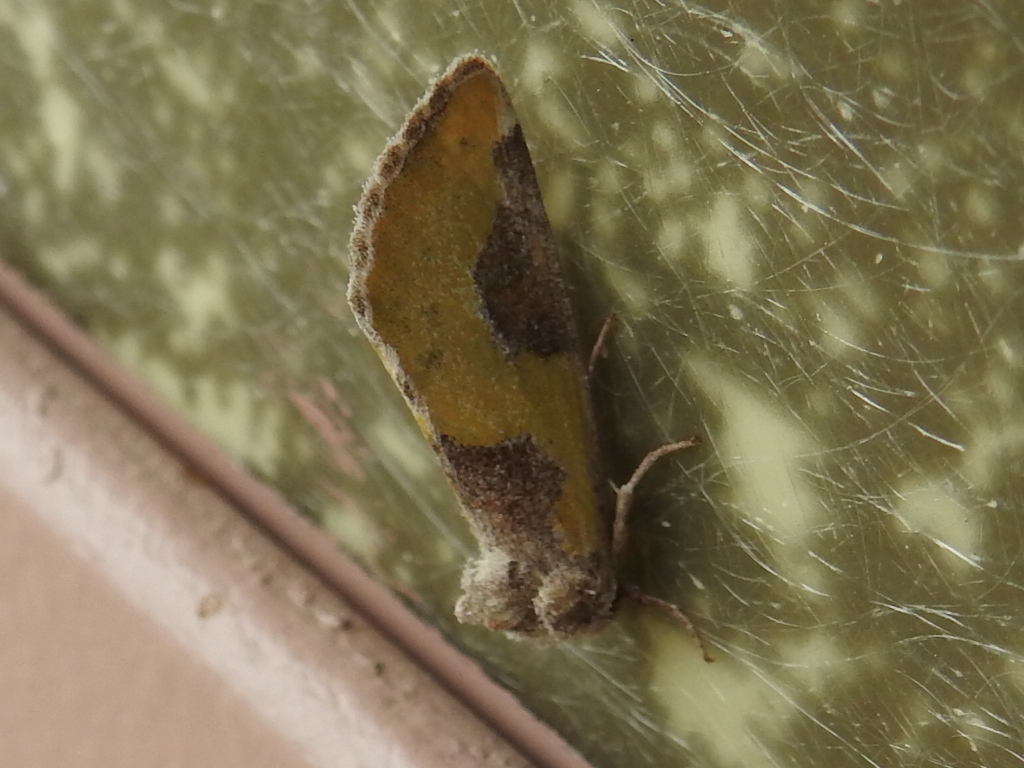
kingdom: Animalia
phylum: Arthropoda
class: Insecta
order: Lepidoptera
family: Noctuidae
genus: Chalcopasta
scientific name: Chalcopasta fulgens
